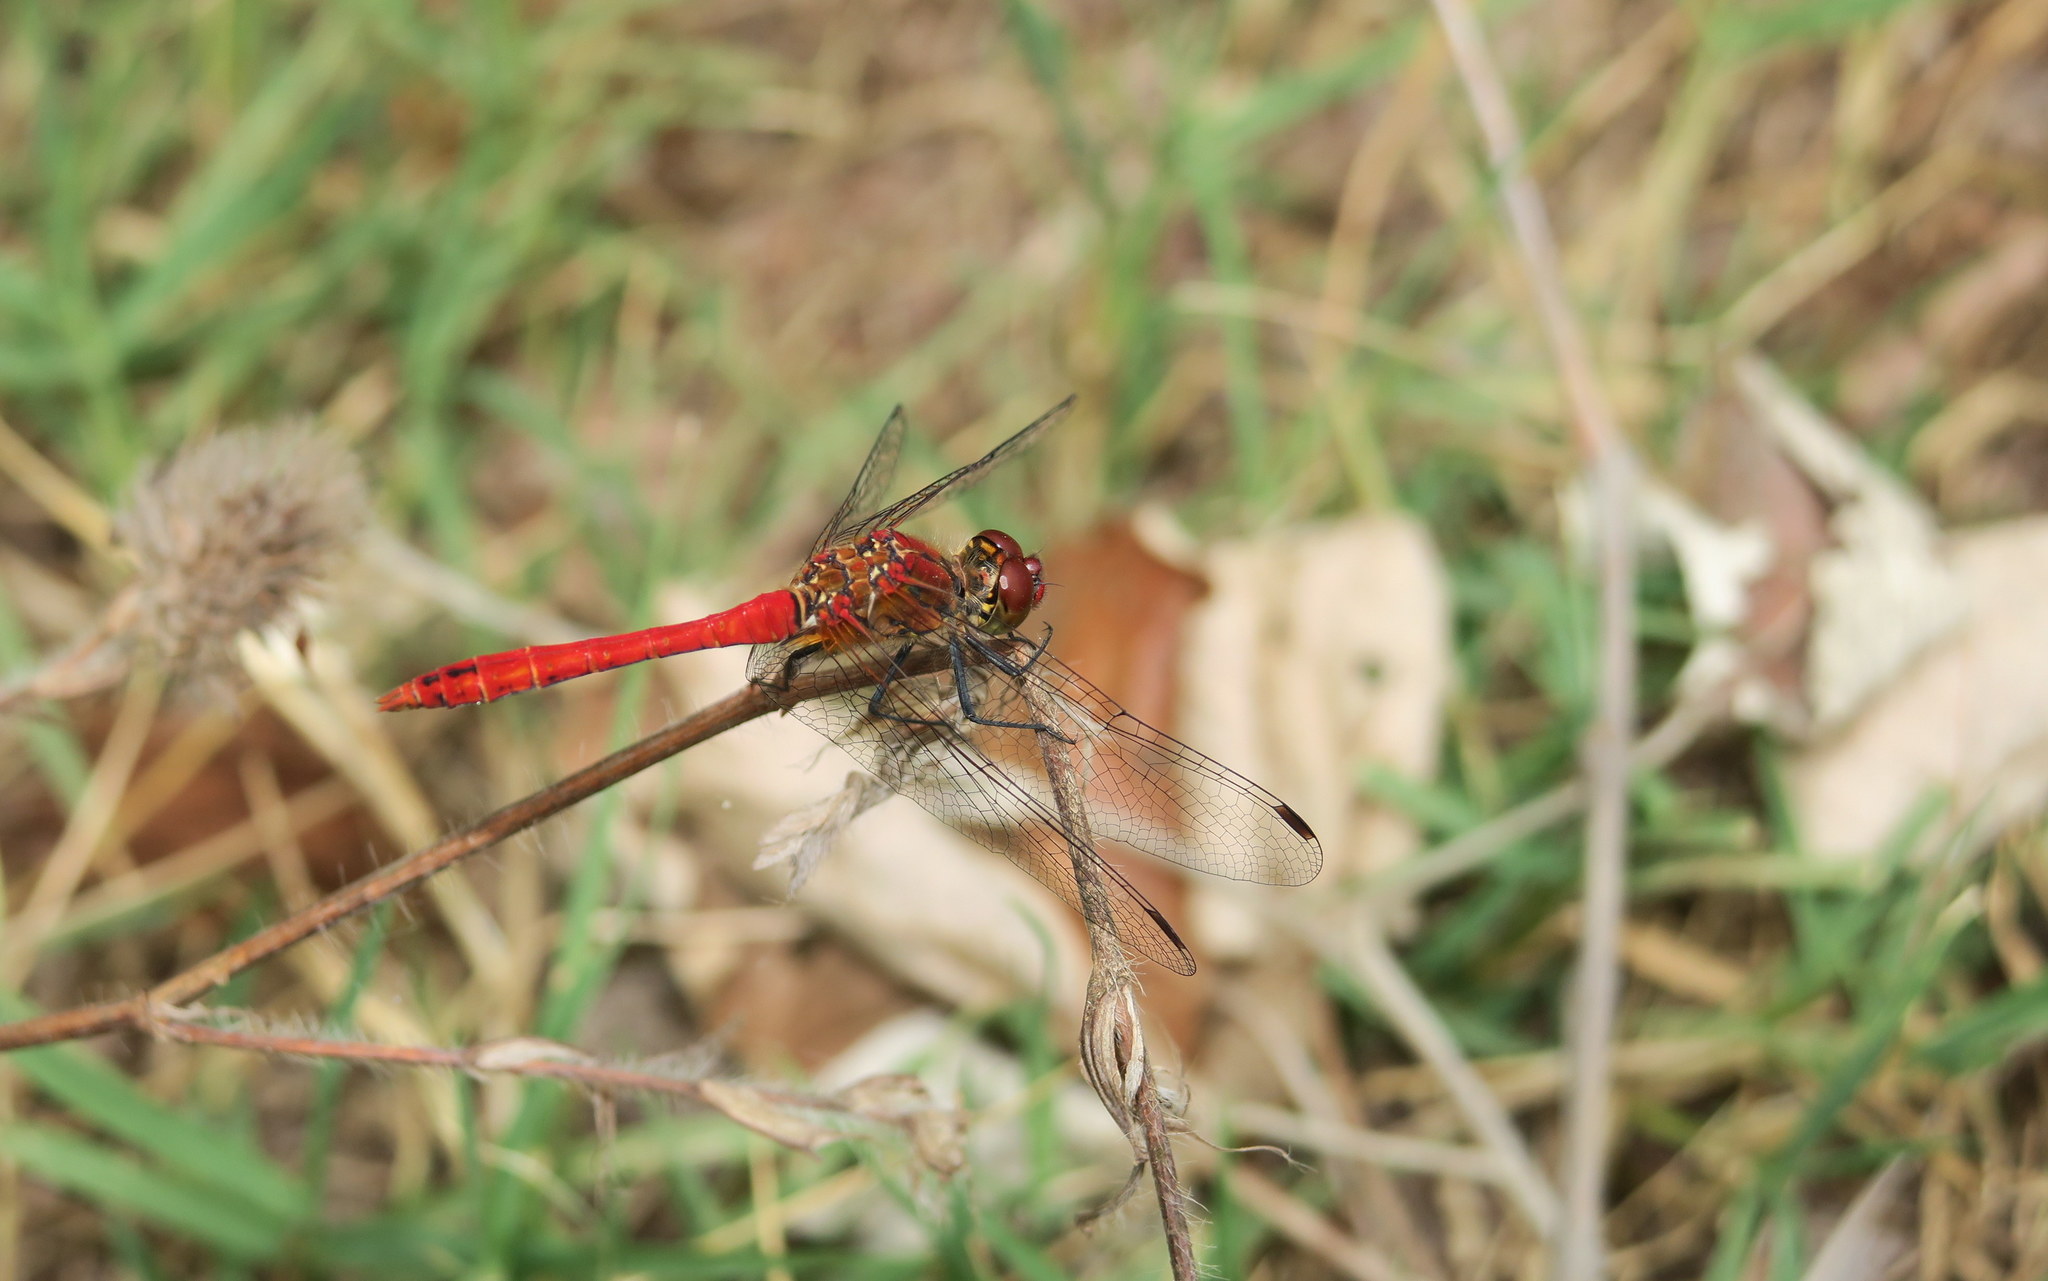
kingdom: Animalia
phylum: Arthropoda
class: Insecta
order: Odonata
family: Libellulidae
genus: Sympetrum
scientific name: Sympetrum sanguineum
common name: Ruddy darter
